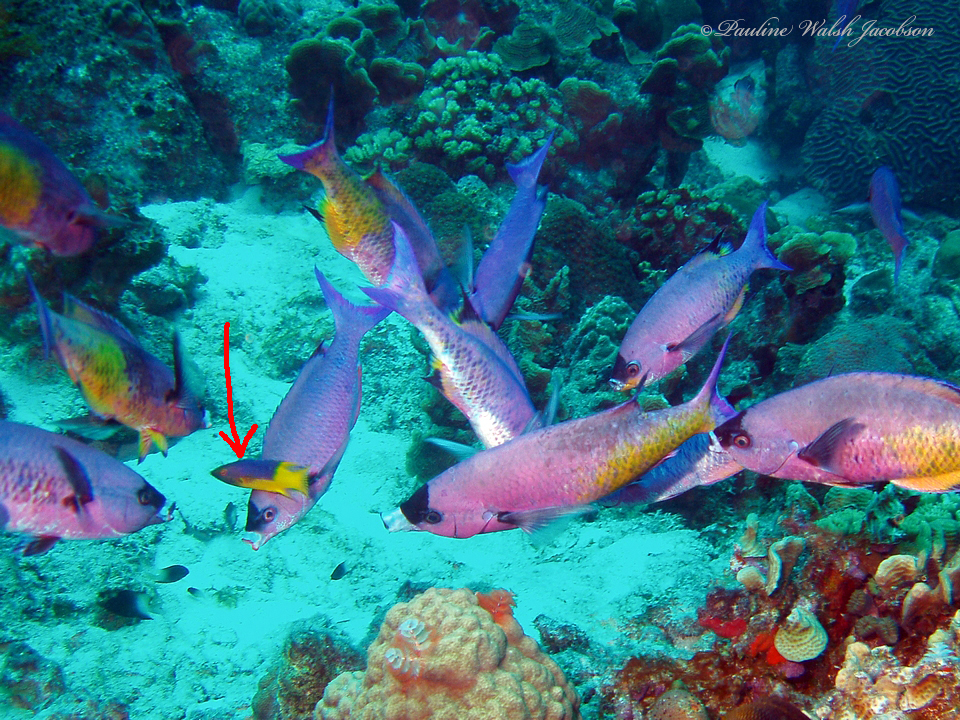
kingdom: Animalia
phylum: Chordata
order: Perciformes
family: Labridae
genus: Bodianus
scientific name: Bodianus rufus
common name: Spanish hogfish
